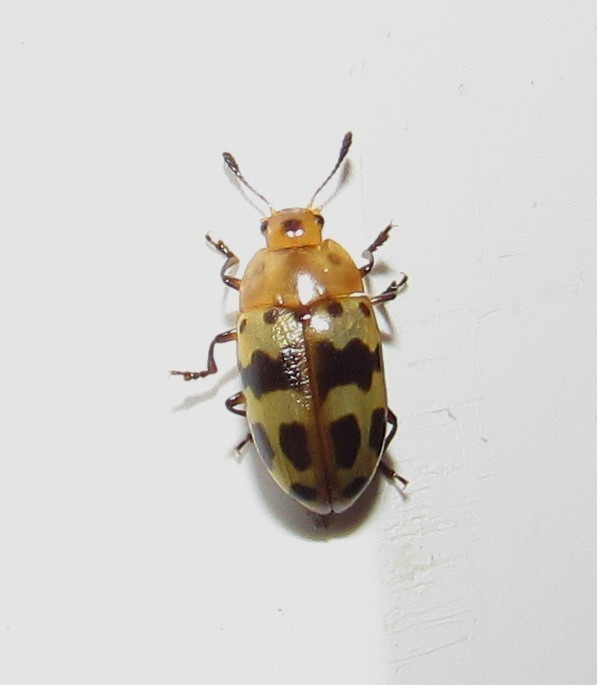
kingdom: Animalia
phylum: Arthropoda
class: Insecta
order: Coleoptera
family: Erotylidae
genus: Iphiclus
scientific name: Iphiclus
